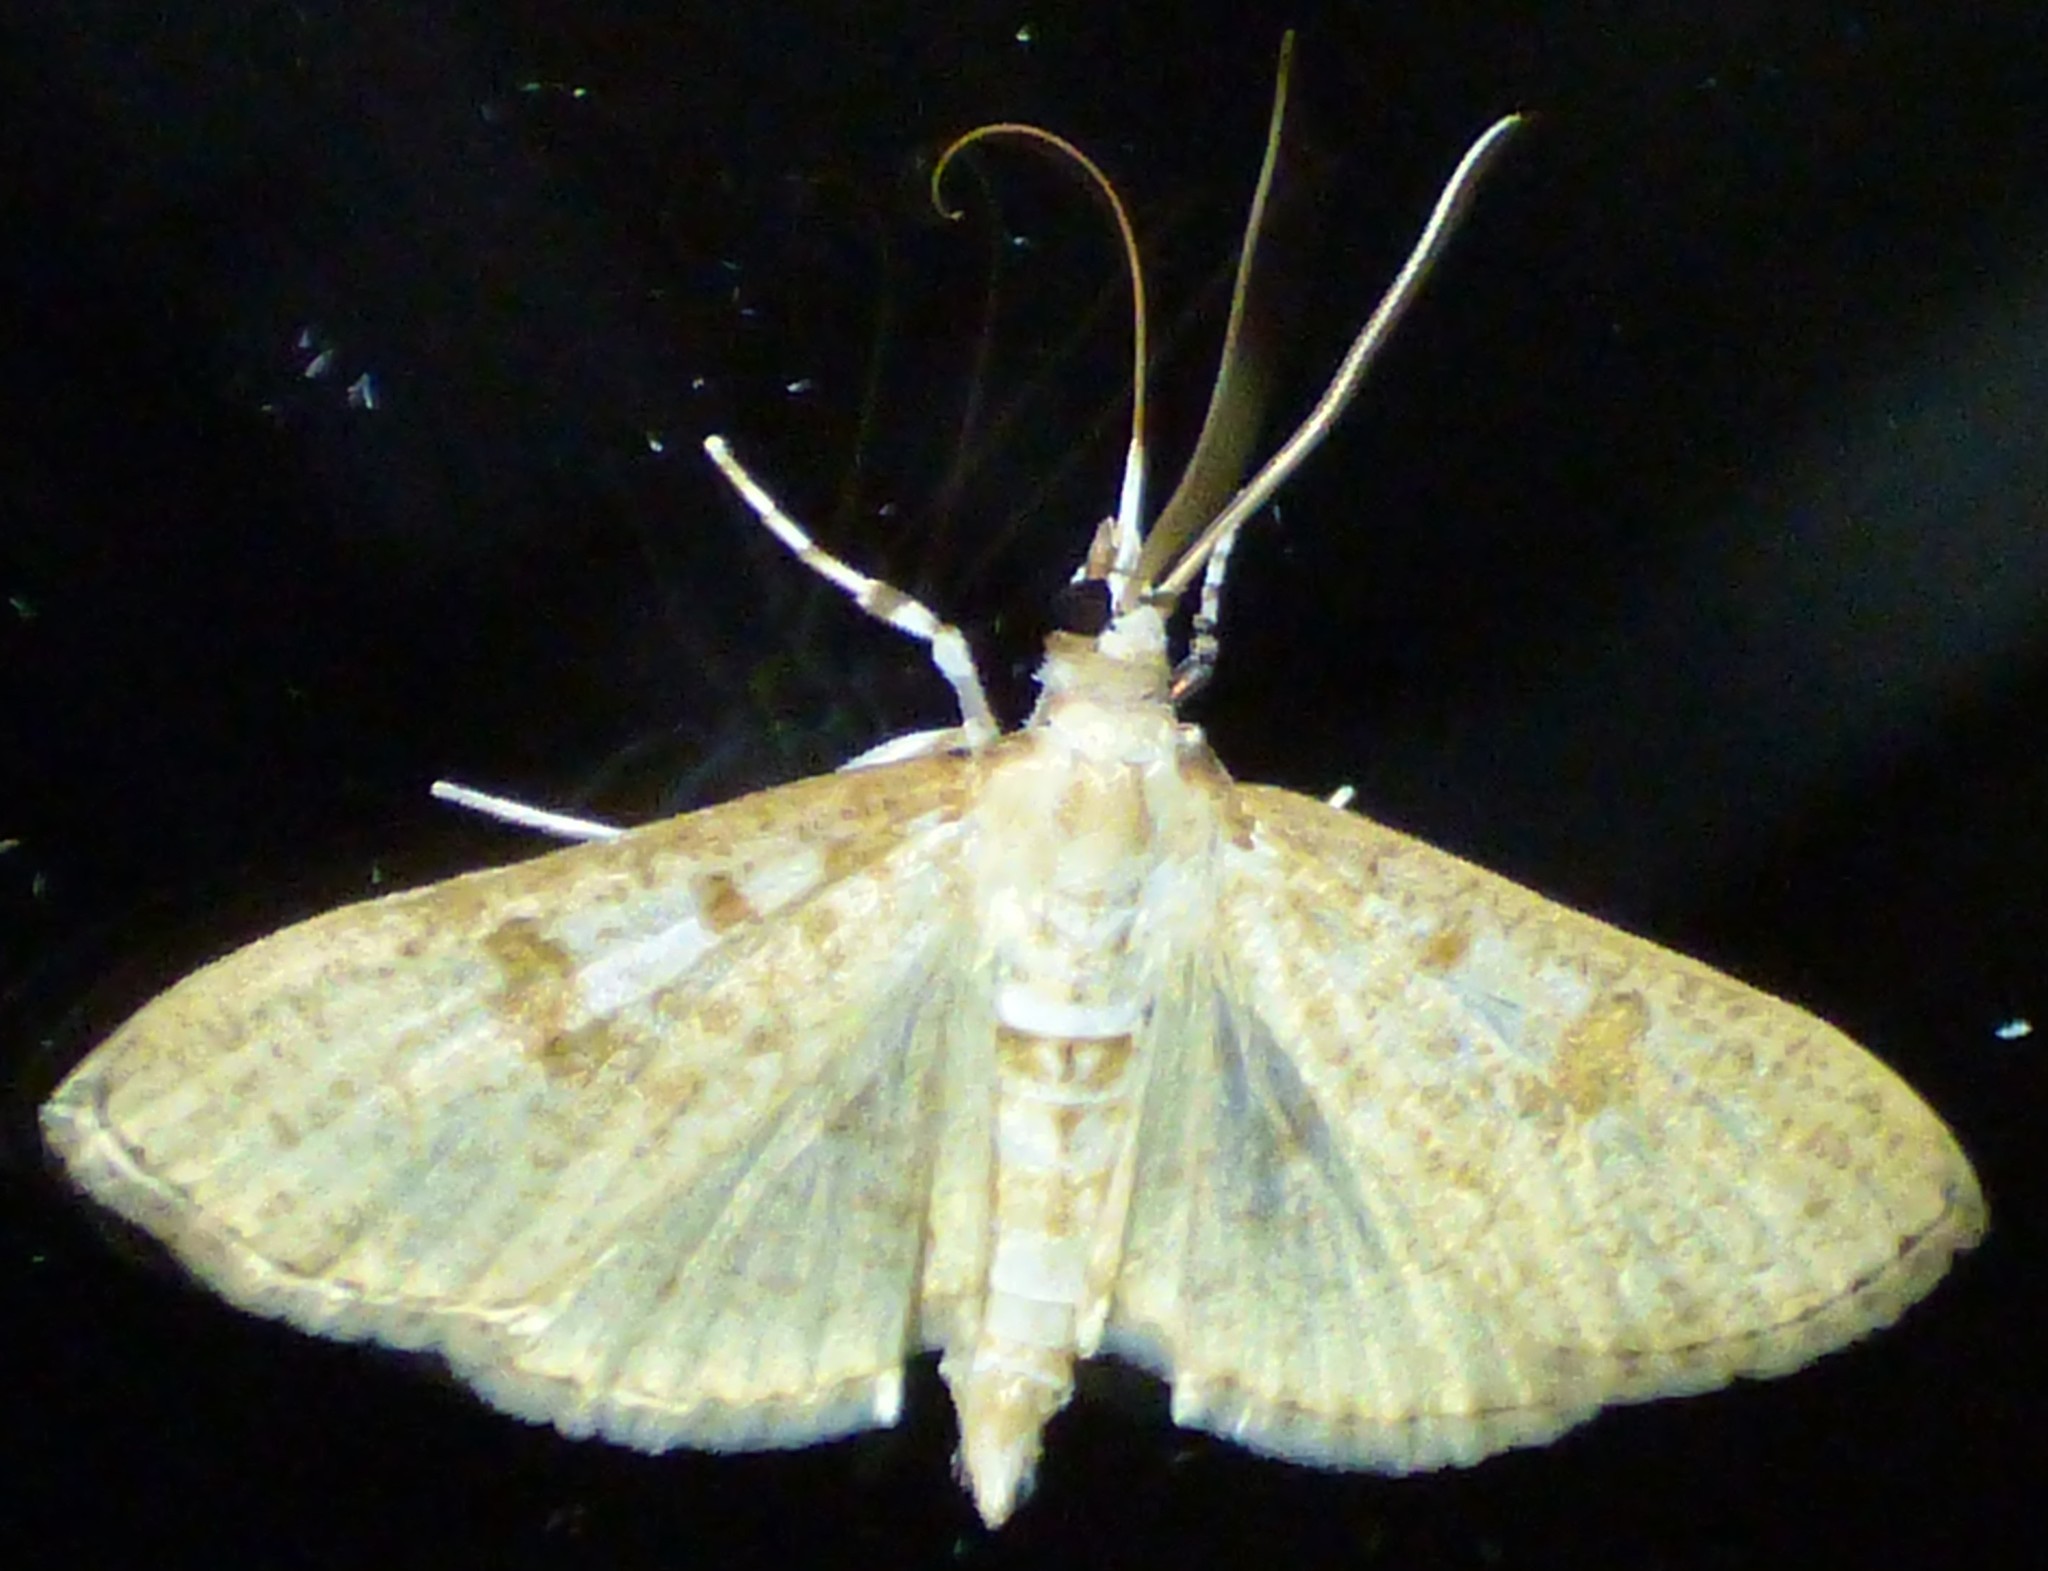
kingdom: Animalia
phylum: Arthropoda
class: Insecta
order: Lepidoptera
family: Crambidae
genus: Palpita
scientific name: Palpita freemanalis
